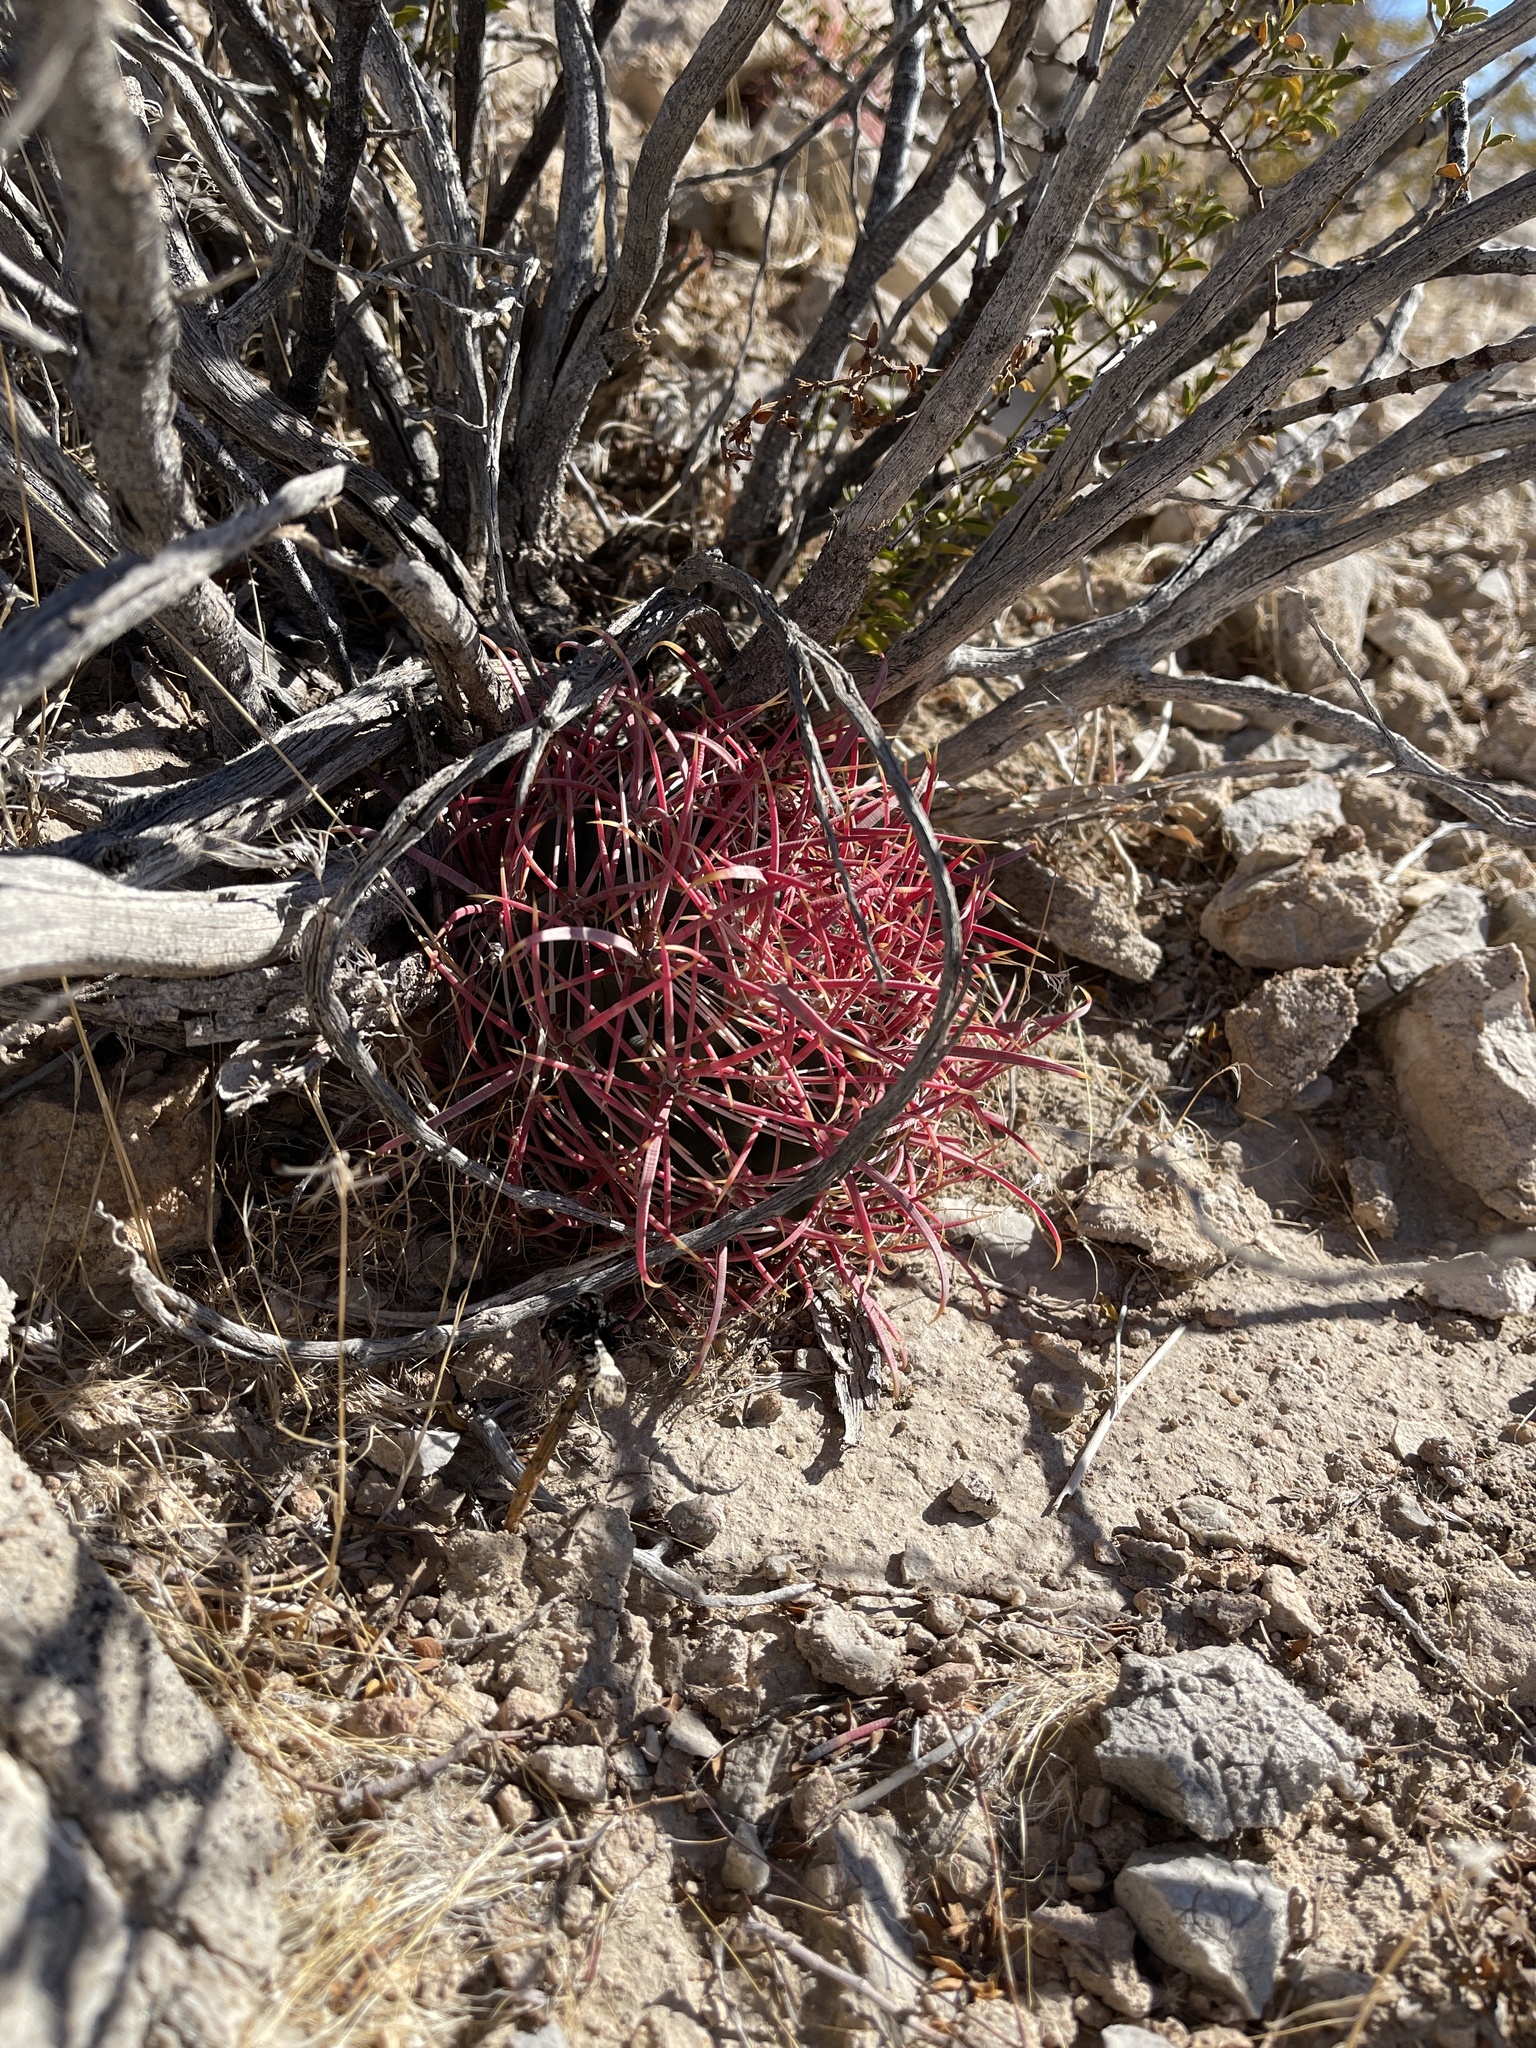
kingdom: Plantae
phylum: Tracheophyta
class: Magnoliopsida
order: Caryophyllales
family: Cactaceae
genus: Ferocactus
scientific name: Ferocactus cylindraceus
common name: California barrel cactus
